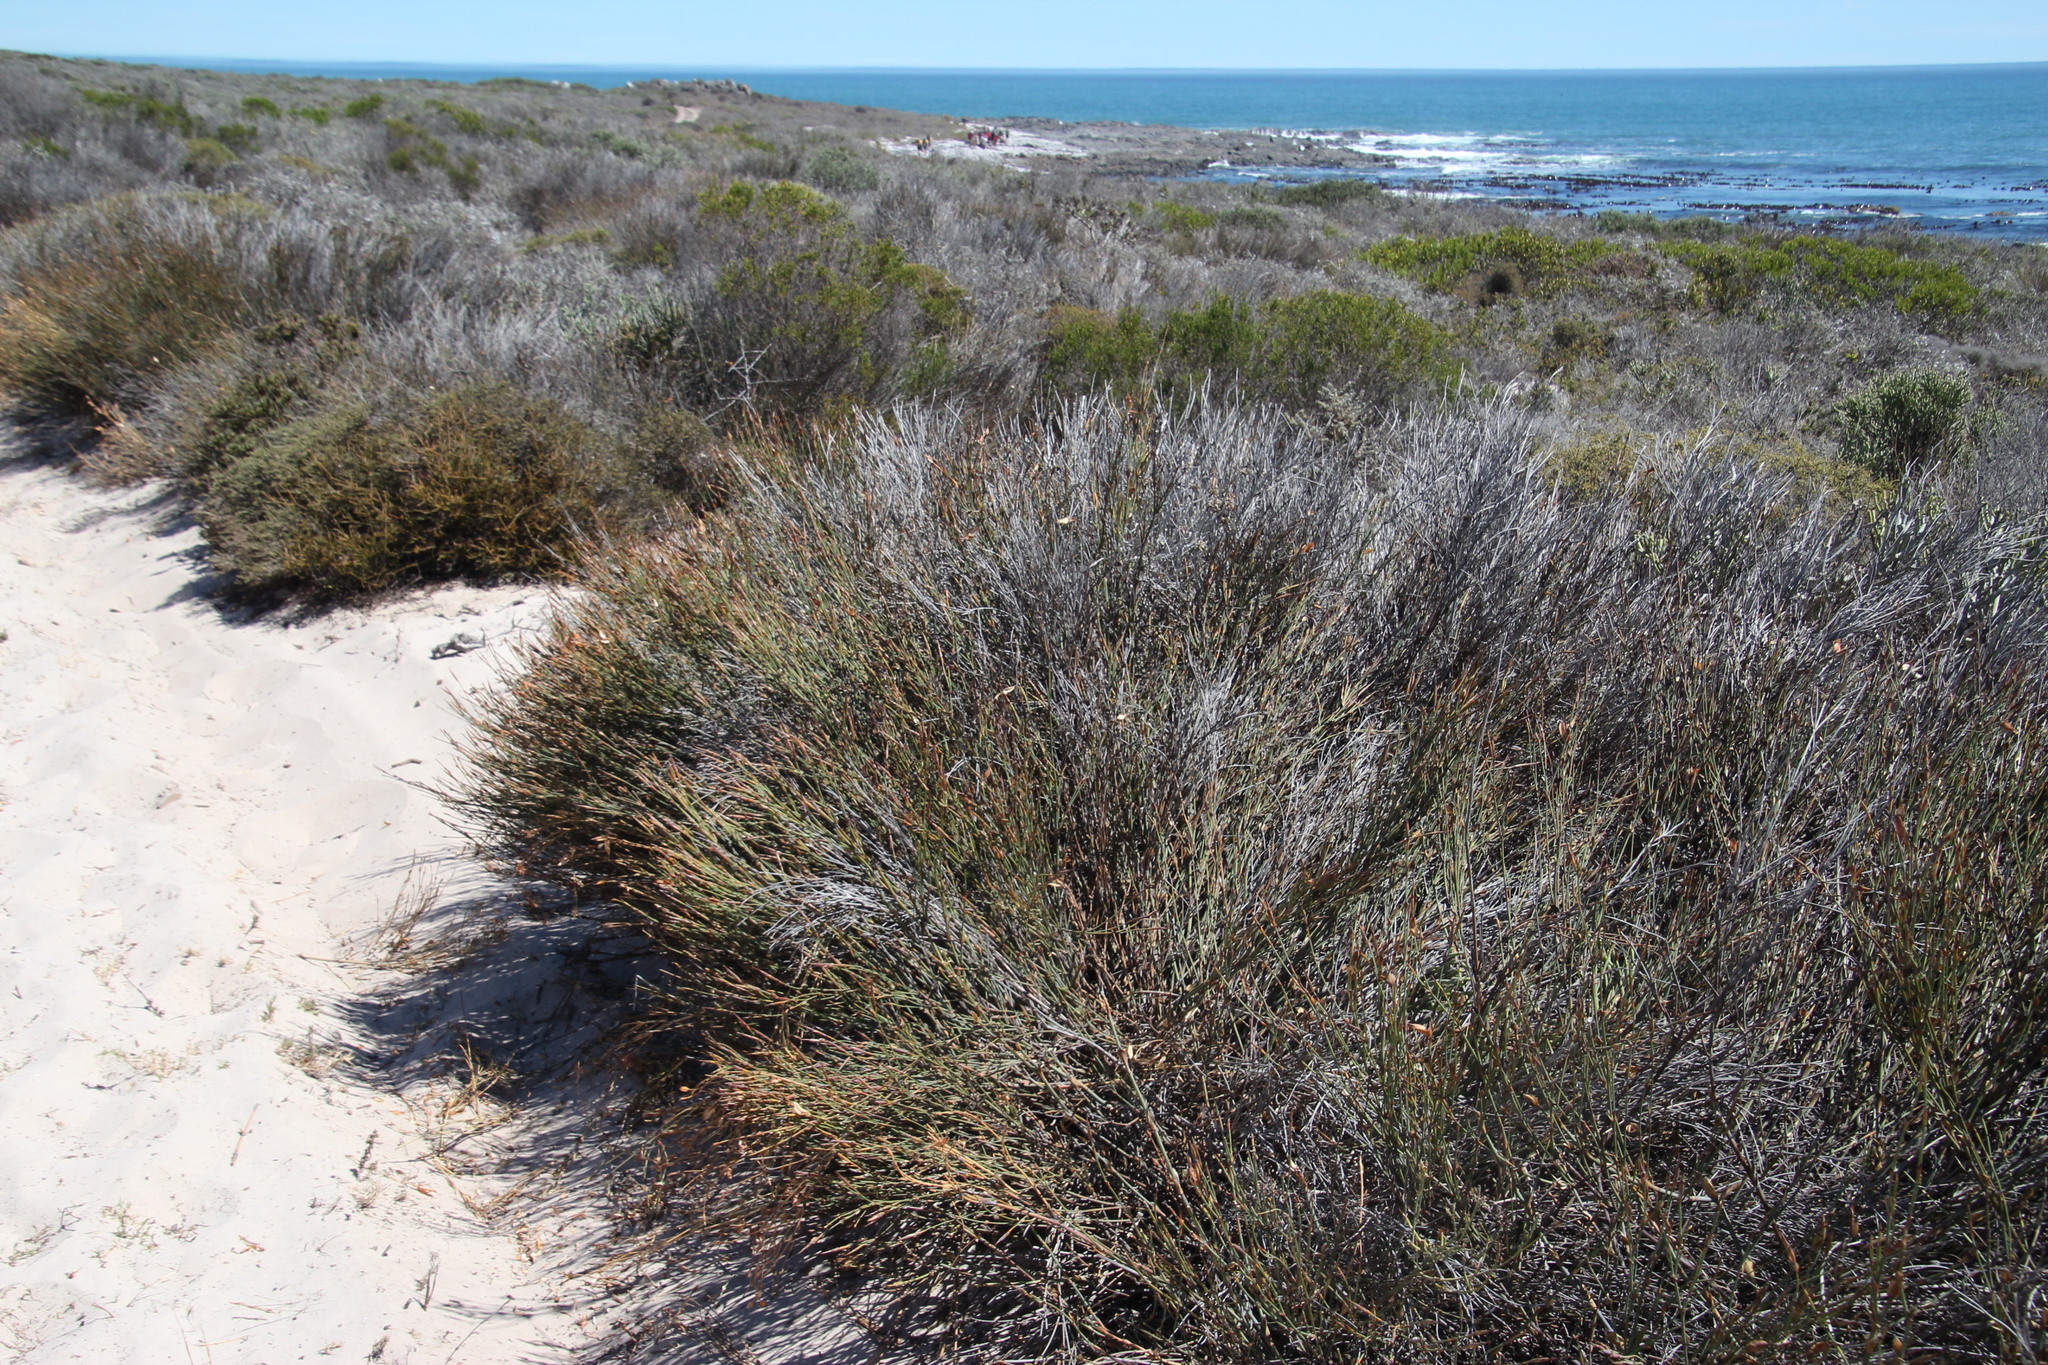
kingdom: Plantae
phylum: Tracheophyta
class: Liliopsida
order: Poales
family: Restionaceae
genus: Willdenowia
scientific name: Willdenowia incurvata
